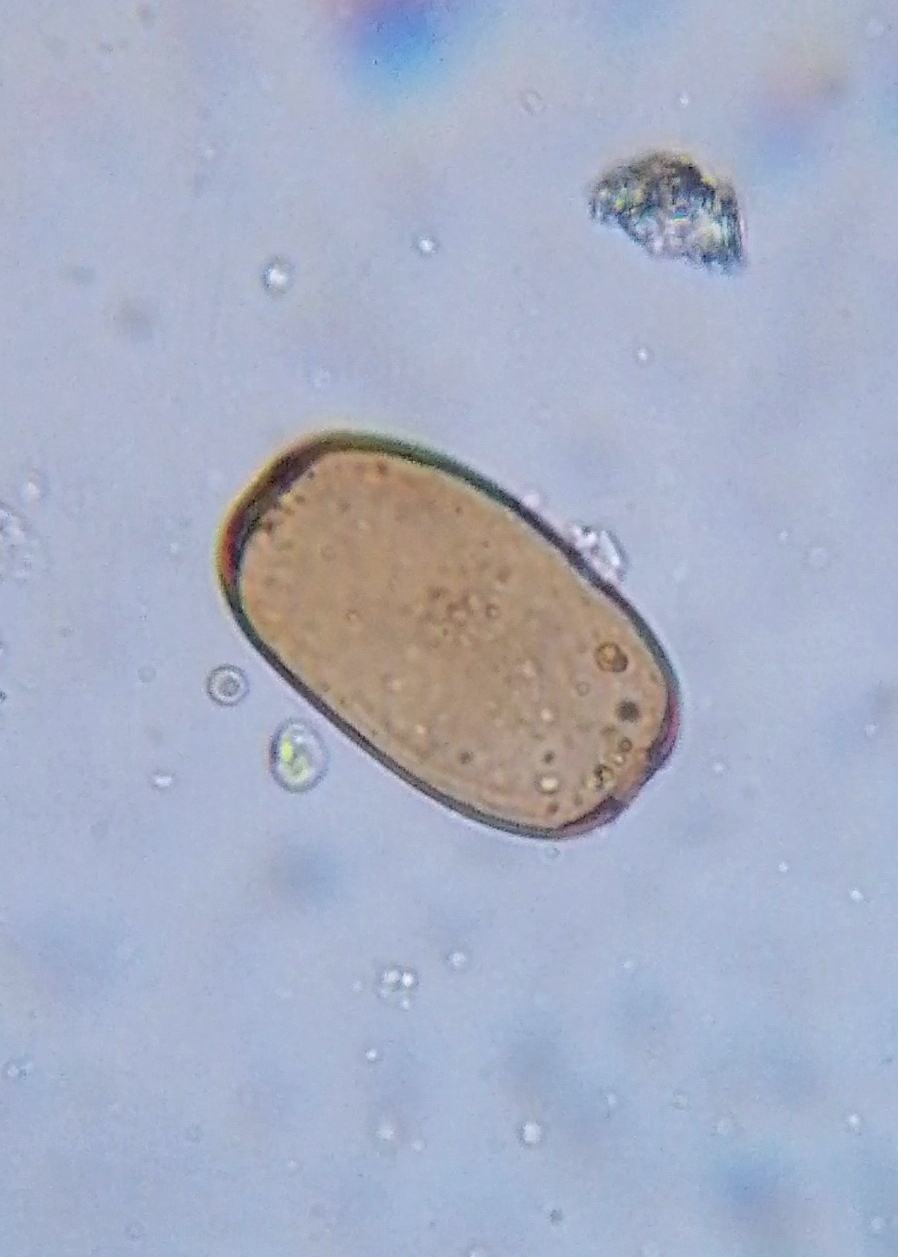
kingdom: Chromista
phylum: Foraminifera
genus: Amphitrema
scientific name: Amphitrema Archerella flavum
